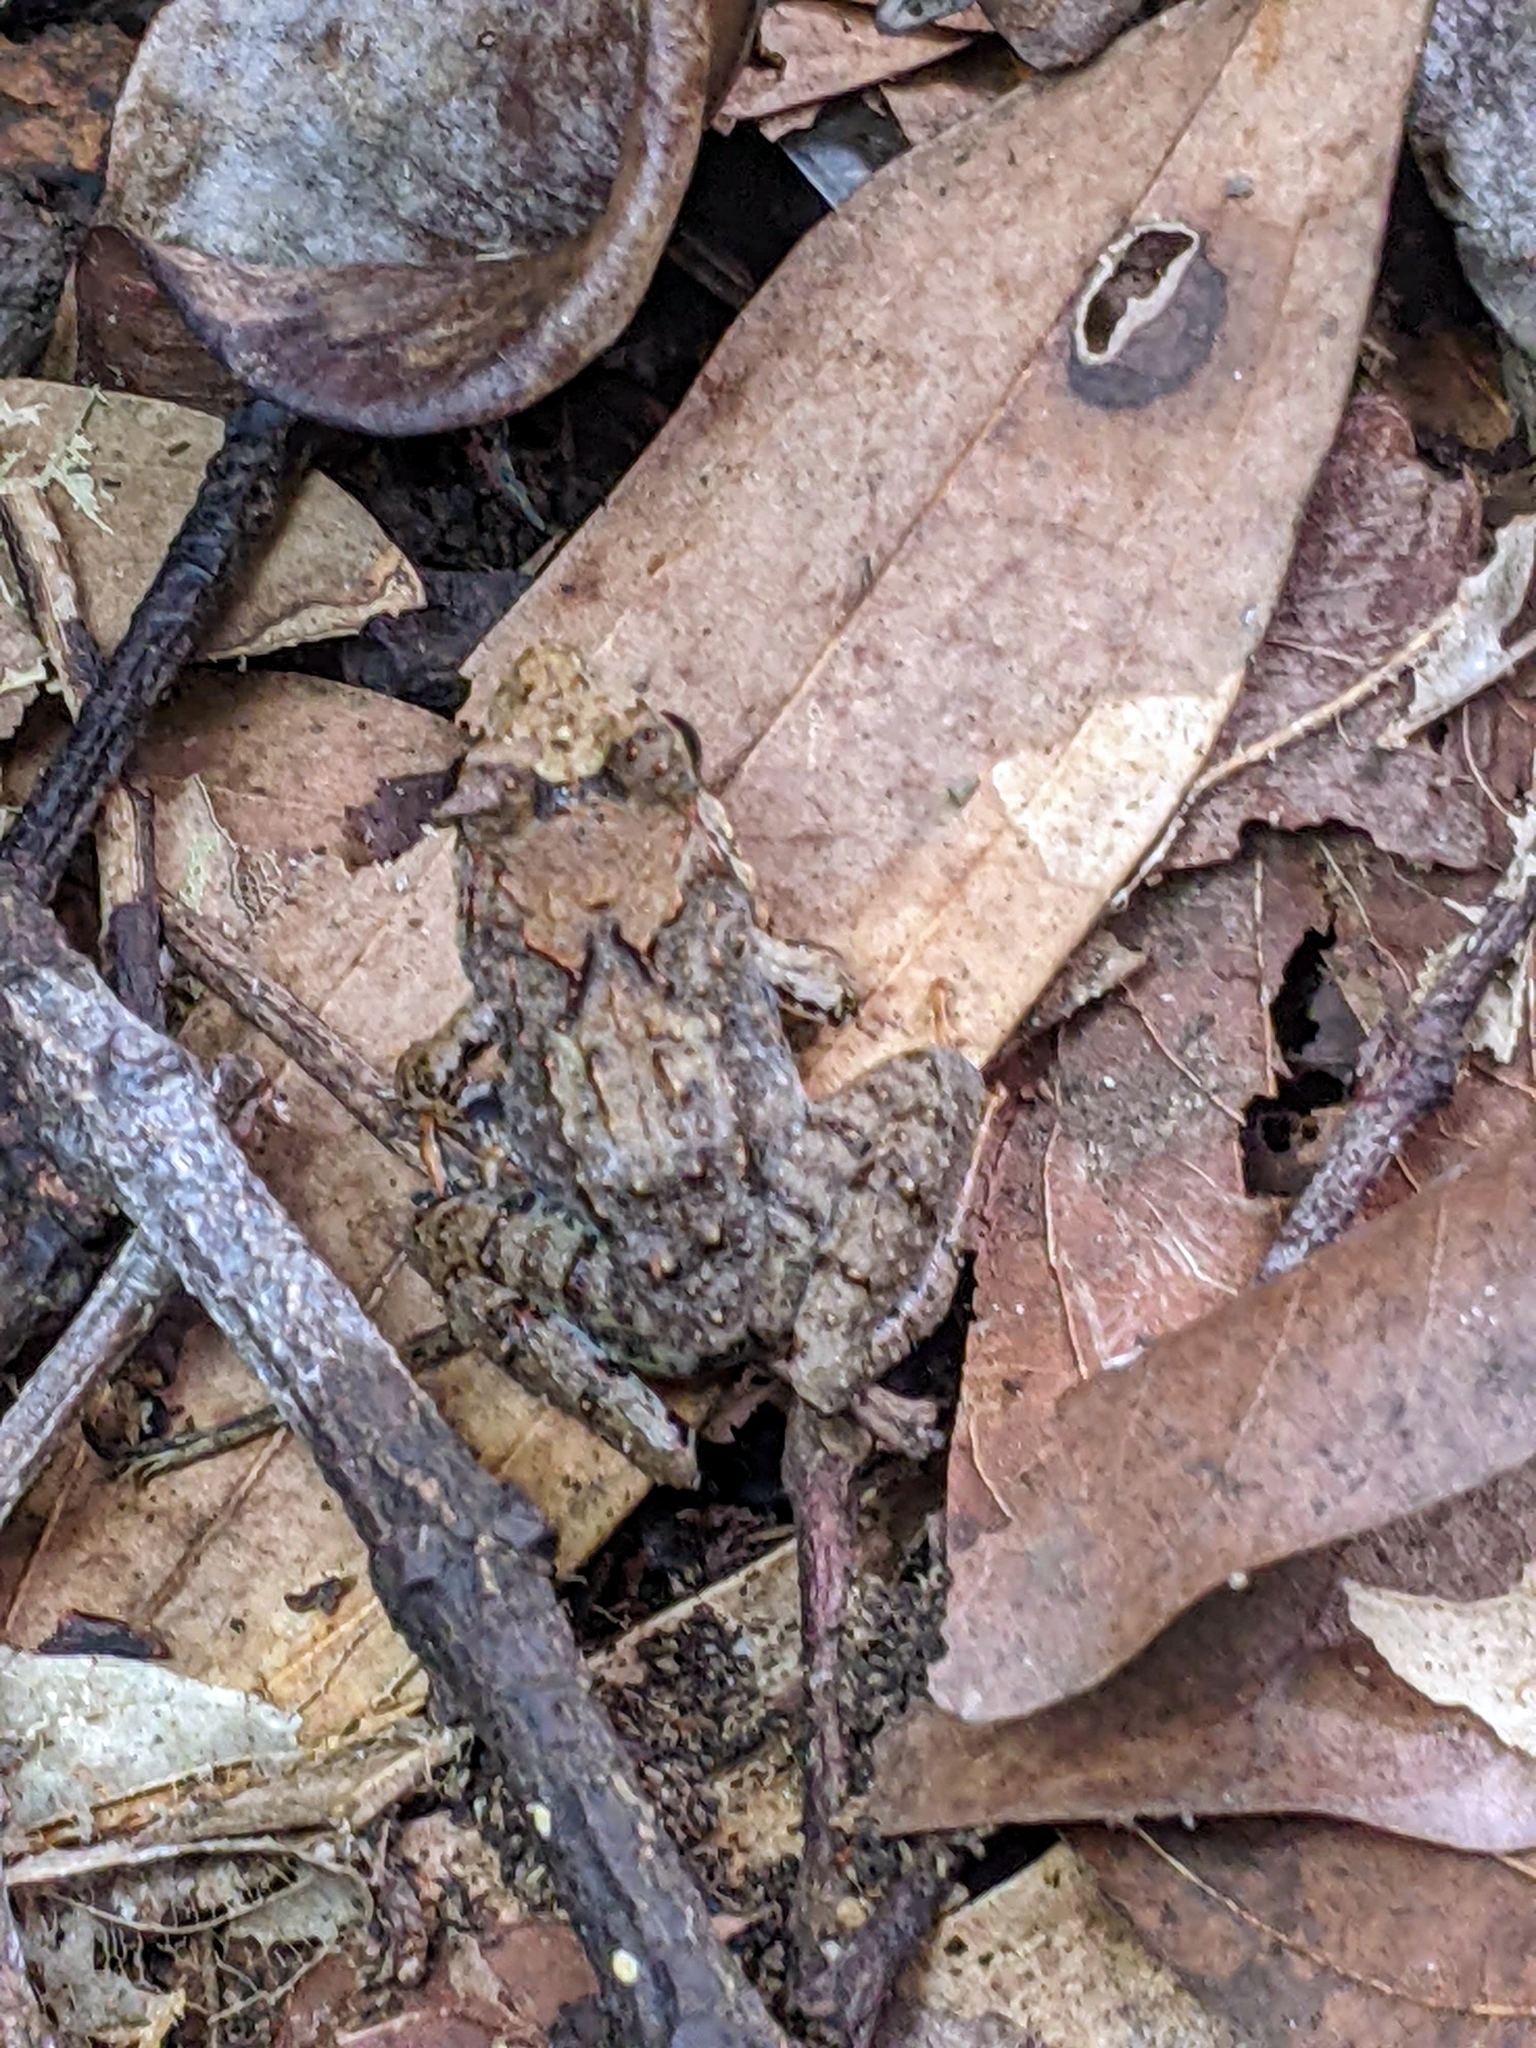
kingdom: Animalia
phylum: Chordata
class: Amphibia
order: Anura
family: Dicroglossidae
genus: Limnonectes
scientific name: Limnonectes malesianus
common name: Peat swamp frog/malaysian frog
